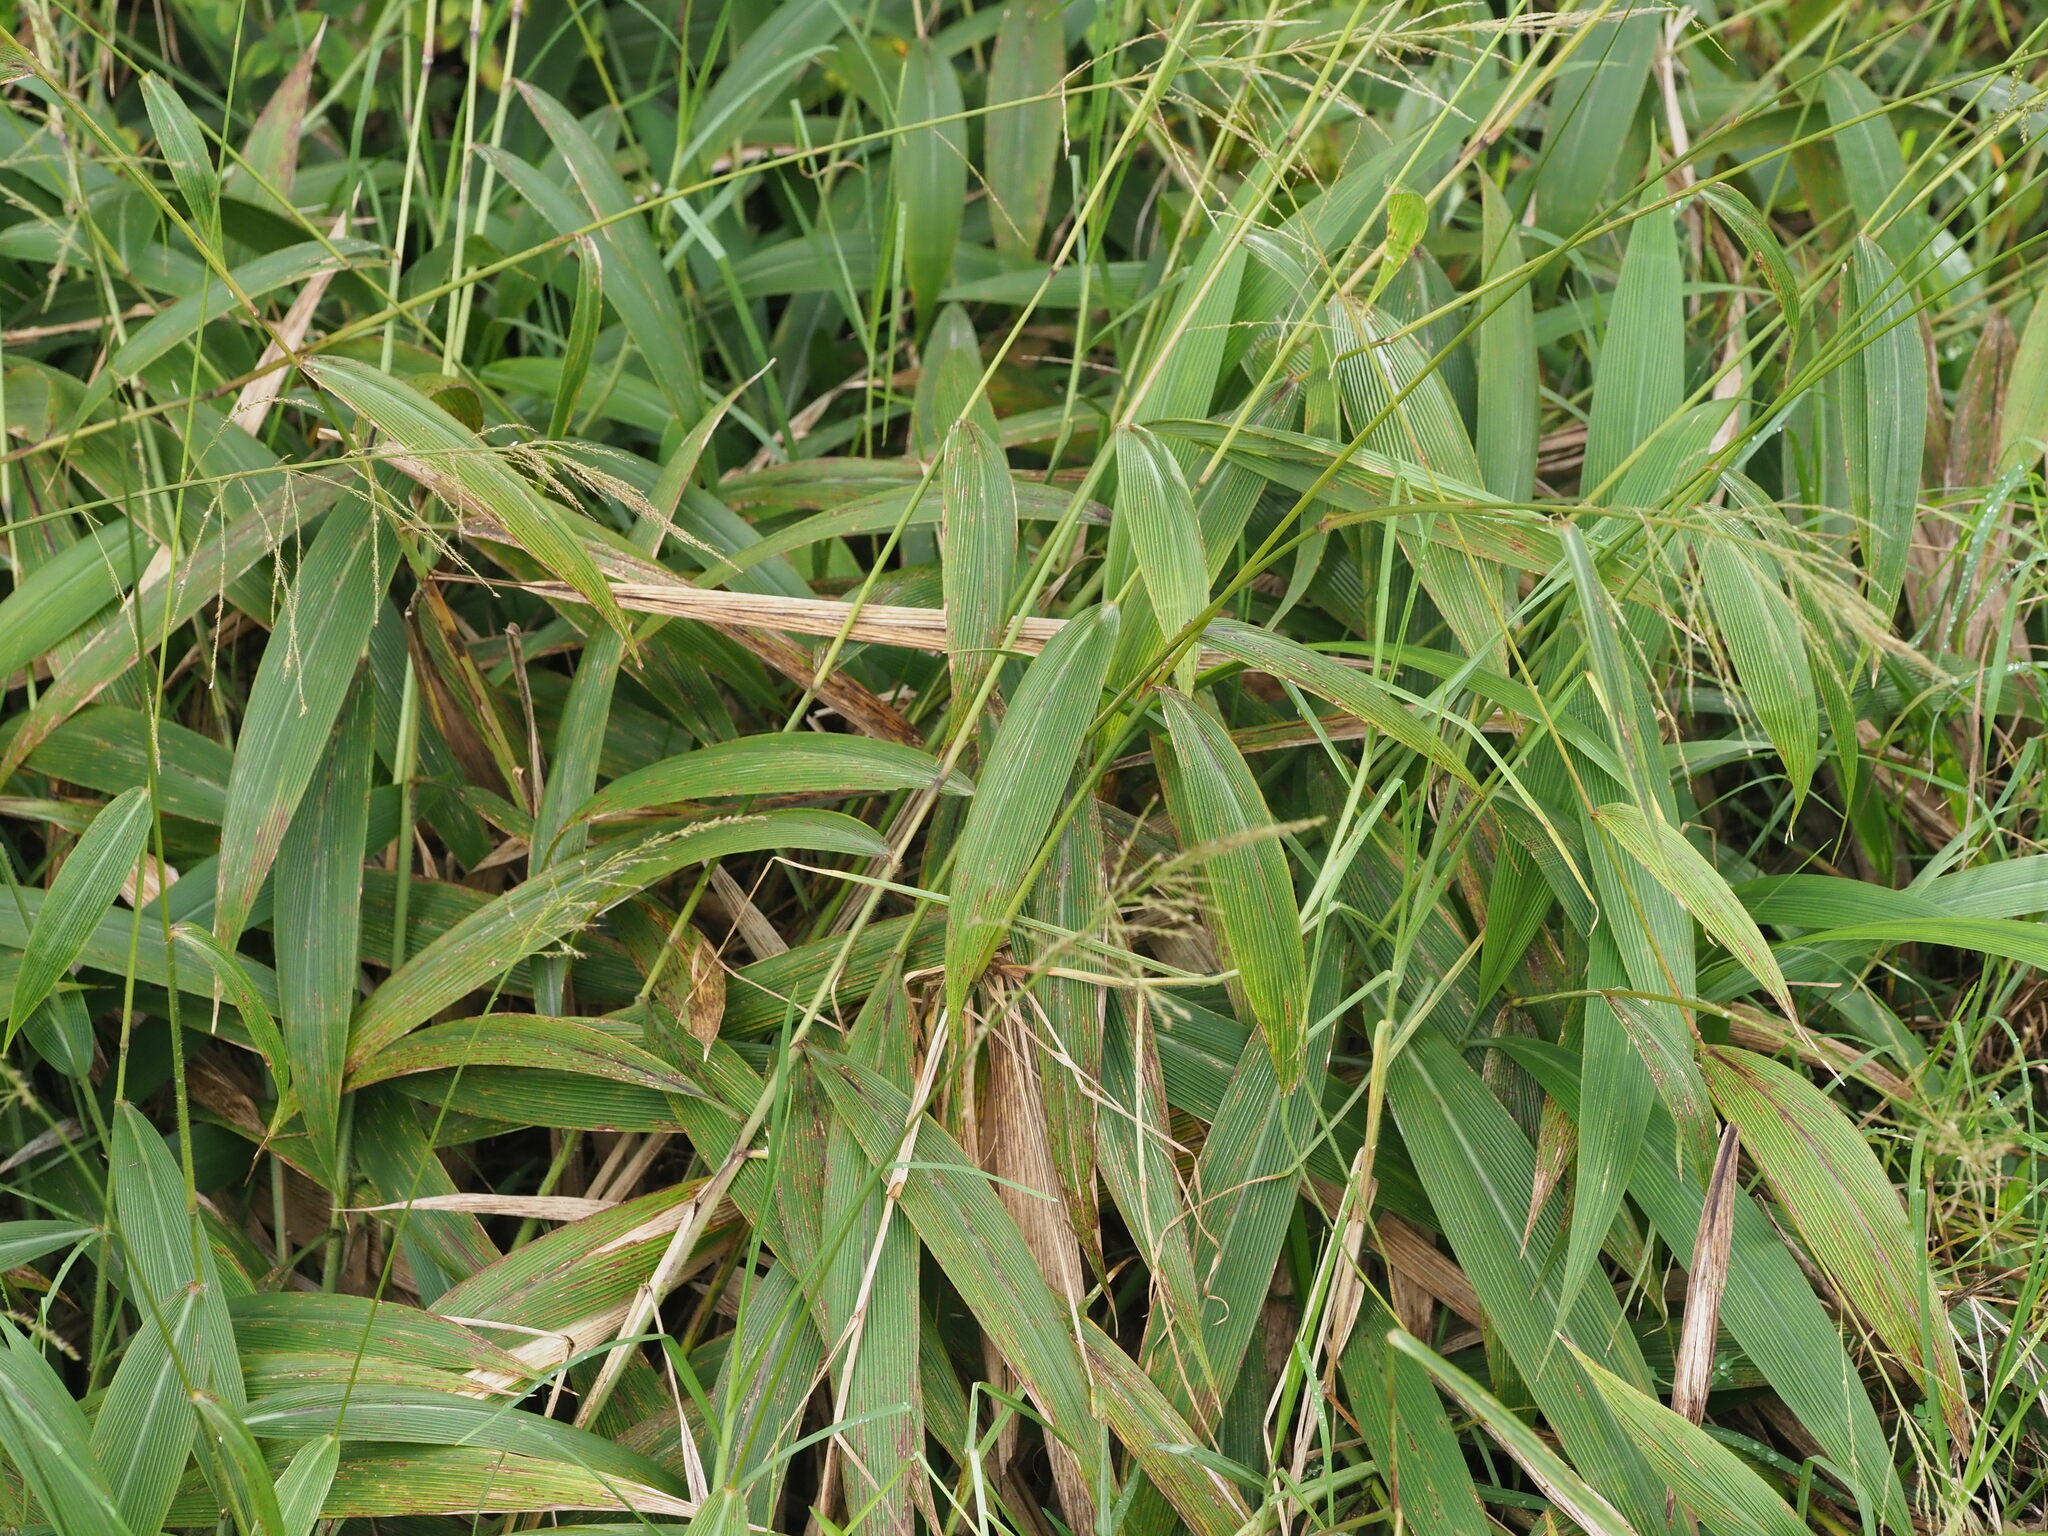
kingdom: Plantae
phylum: Tracheophyta
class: Liliopsida
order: Poales
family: Poaceae
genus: Setaria
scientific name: Setaria palmifolia
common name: Broadleaved bristlegrass
